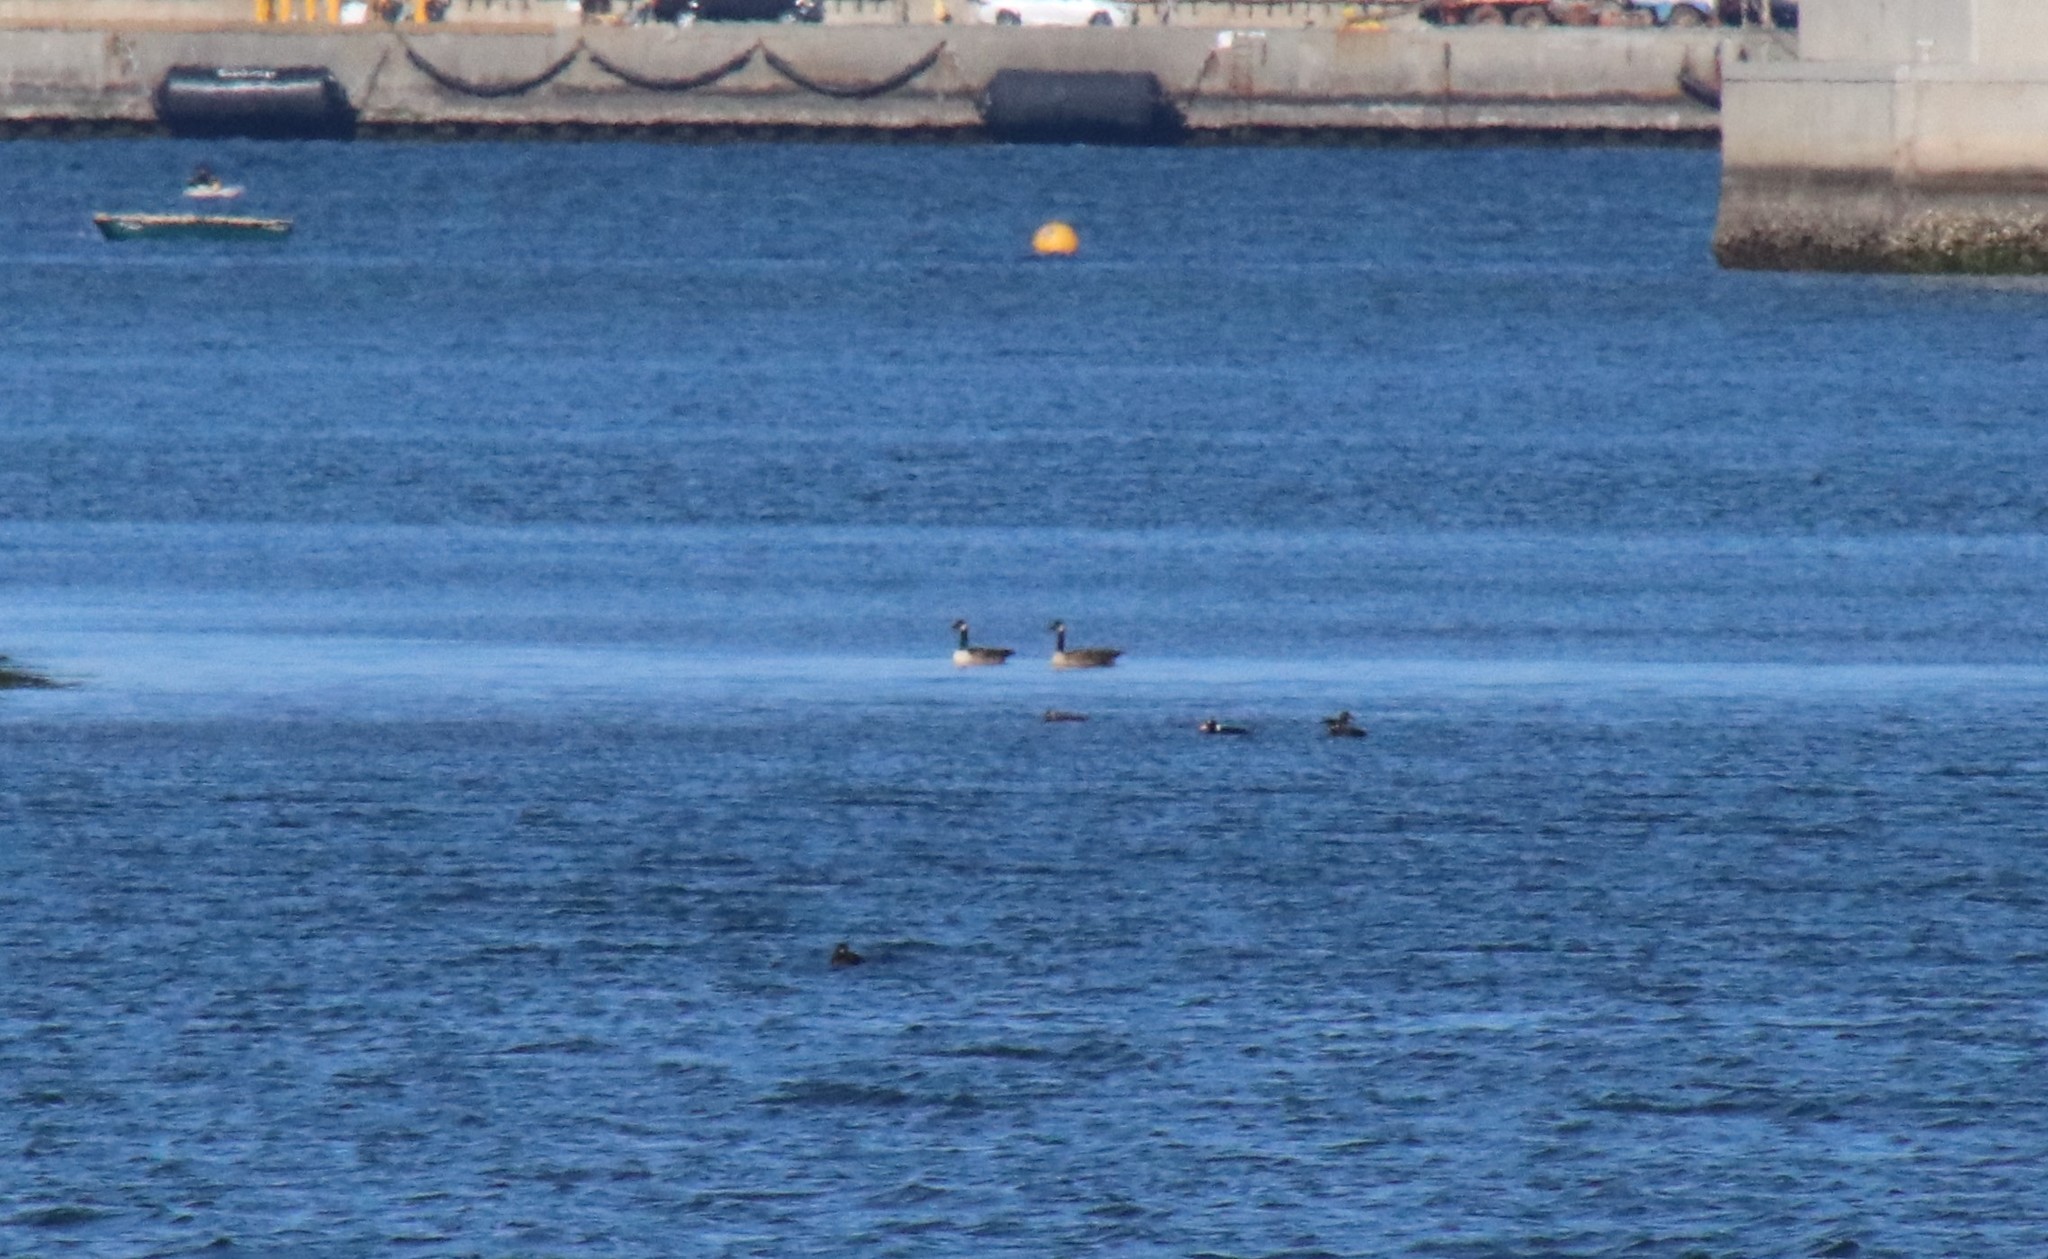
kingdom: Animalia
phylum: Chordata
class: Aves
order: Anseriformes
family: Anatidae
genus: Branta
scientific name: Branta canadensis
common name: Canada goose
